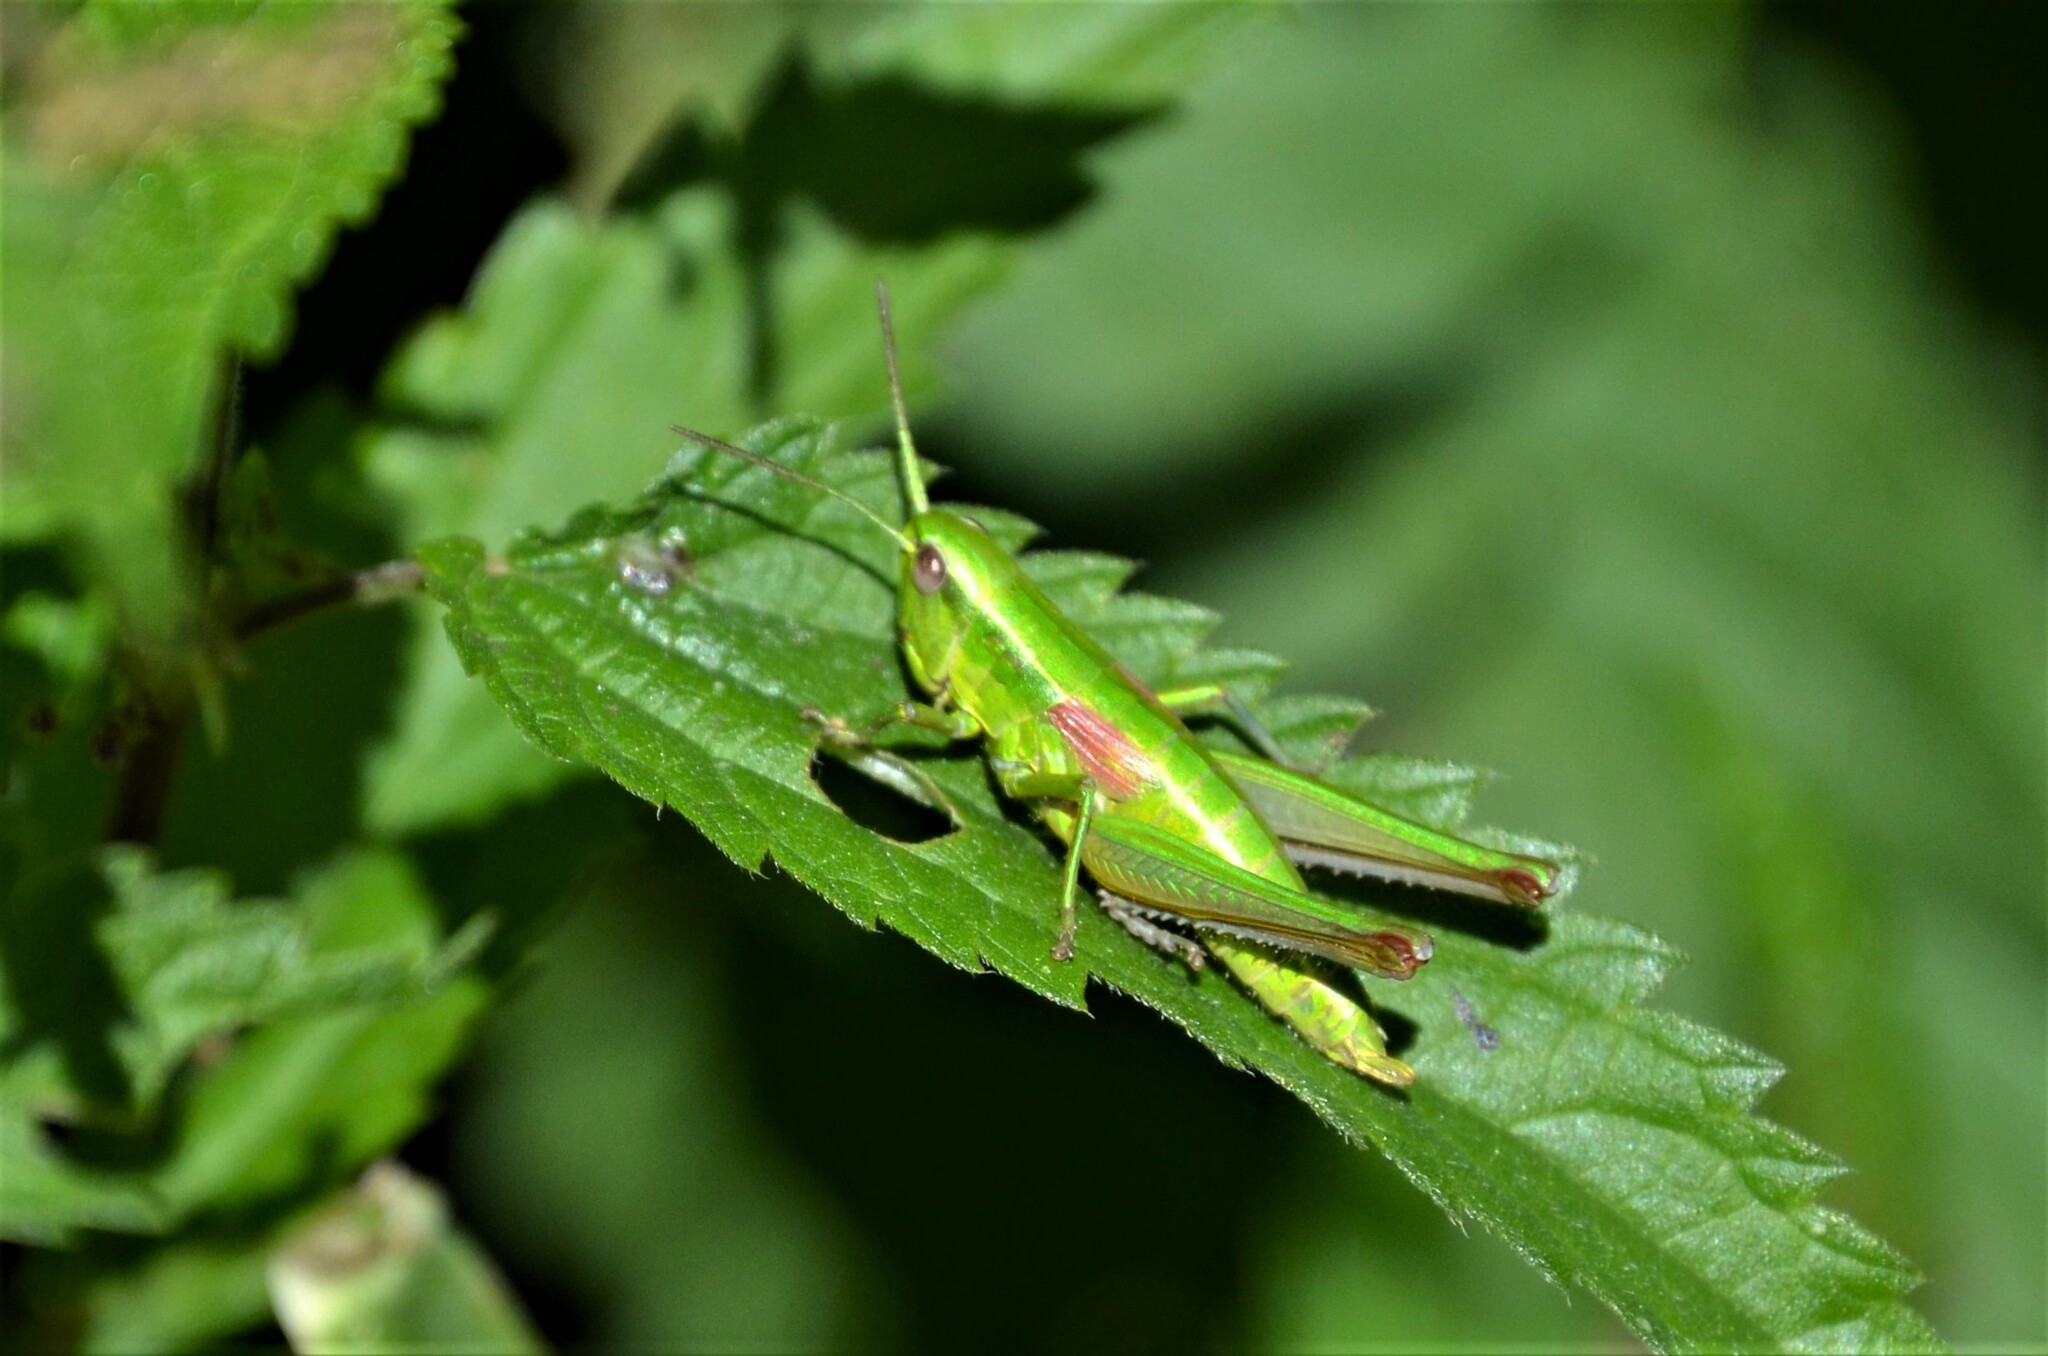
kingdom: Animalia
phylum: Arthropoda
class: Insecta
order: Orthoptera
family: Acrididae
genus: Euthystira
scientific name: Euthystira brachyptera
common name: Small gold grasshopper
